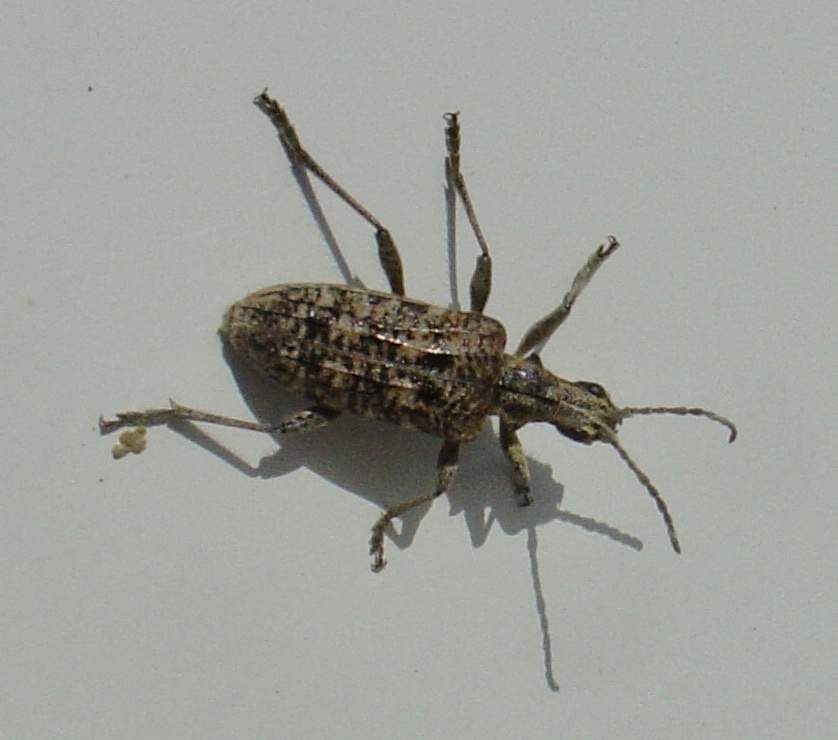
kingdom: Animalia
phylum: Arthropoda
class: Insecta
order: Coleoptera
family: Cerambycidae
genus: Rhagium
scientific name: Rhagium inquisitor
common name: Ribbed pine borer
